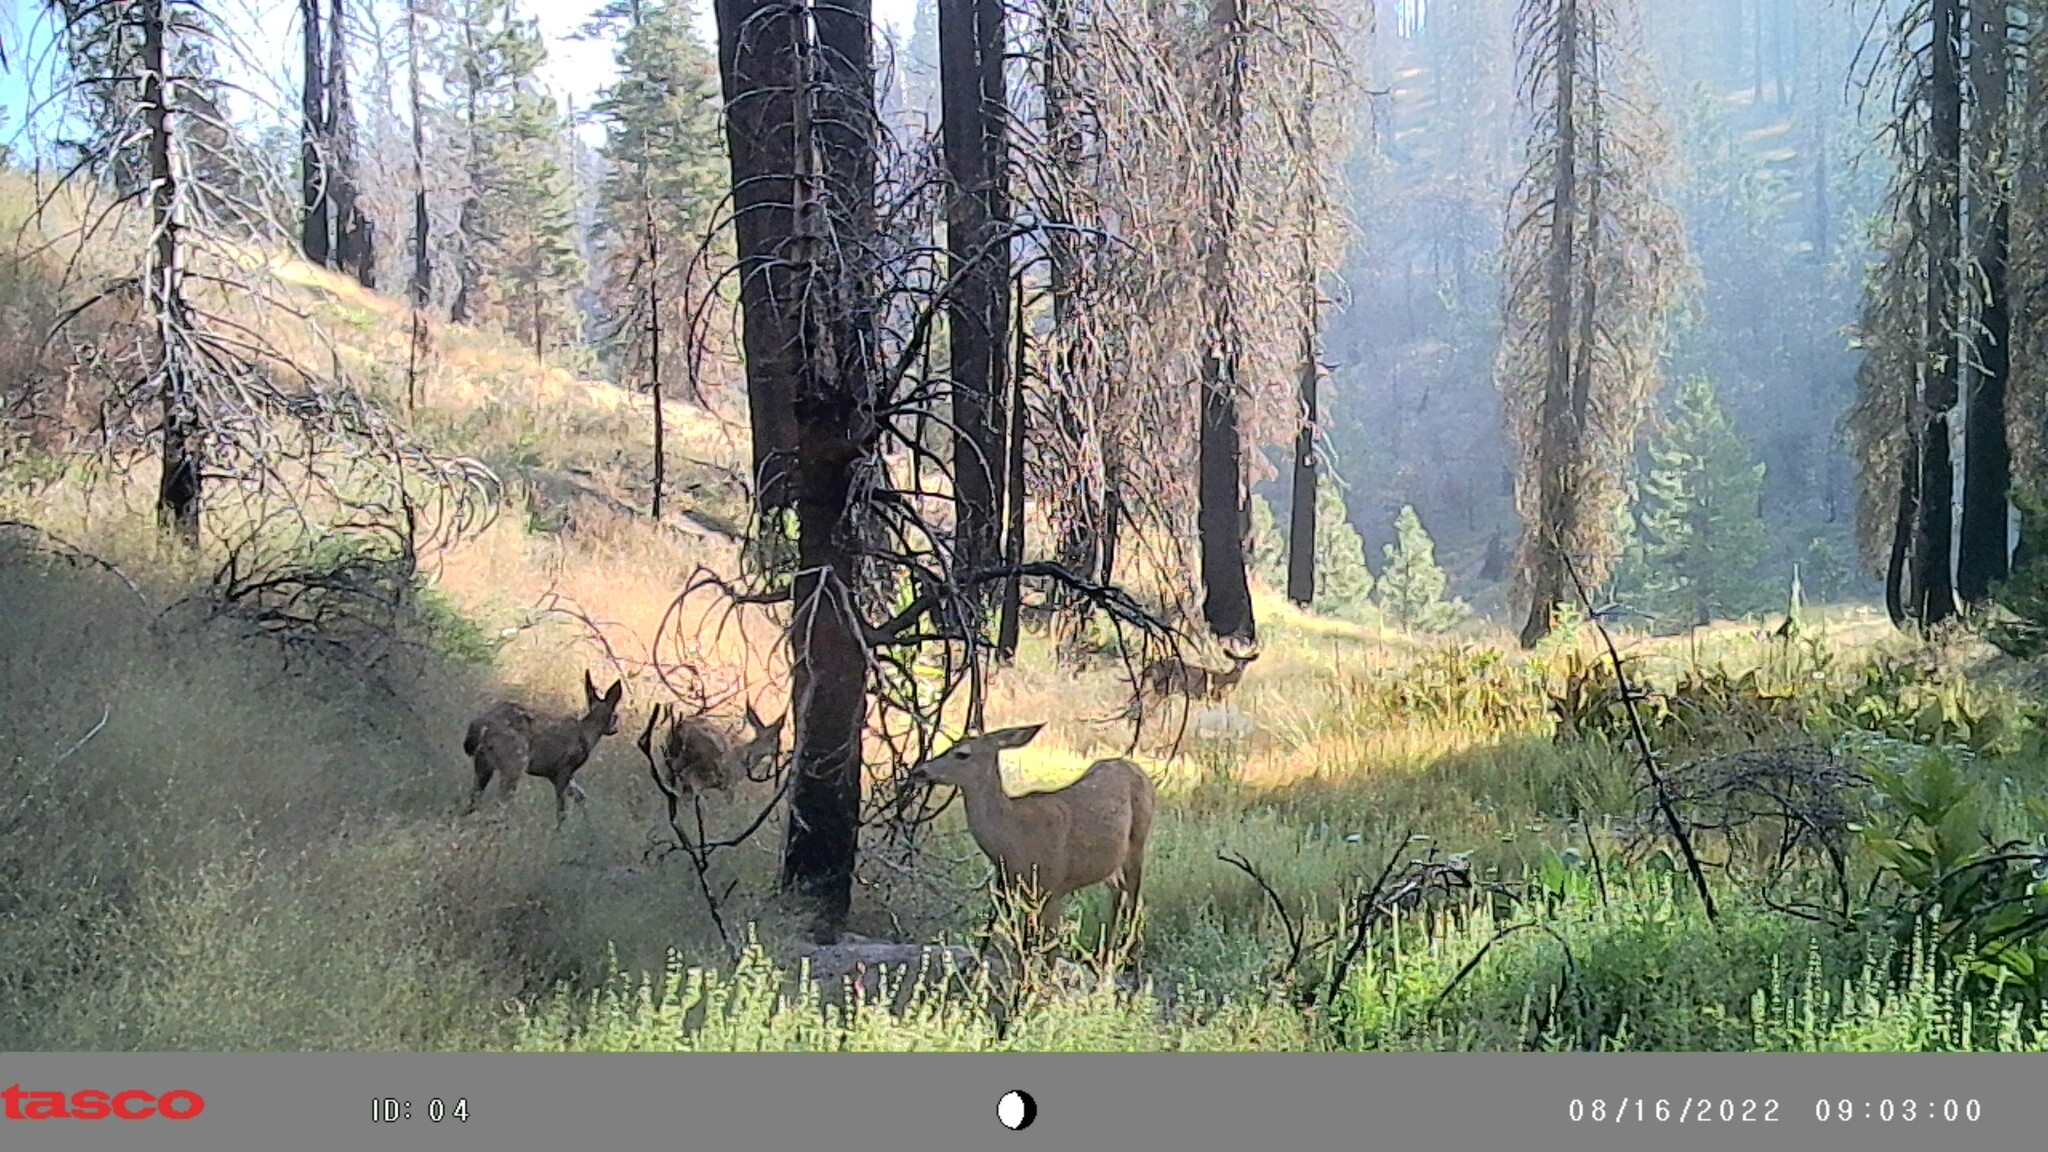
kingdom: Animalia
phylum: Chordata
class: Mammalia
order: Artiodactyla
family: Cervidae
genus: Odocoileus
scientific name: Odocoileus hemionus
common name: Mule deer
